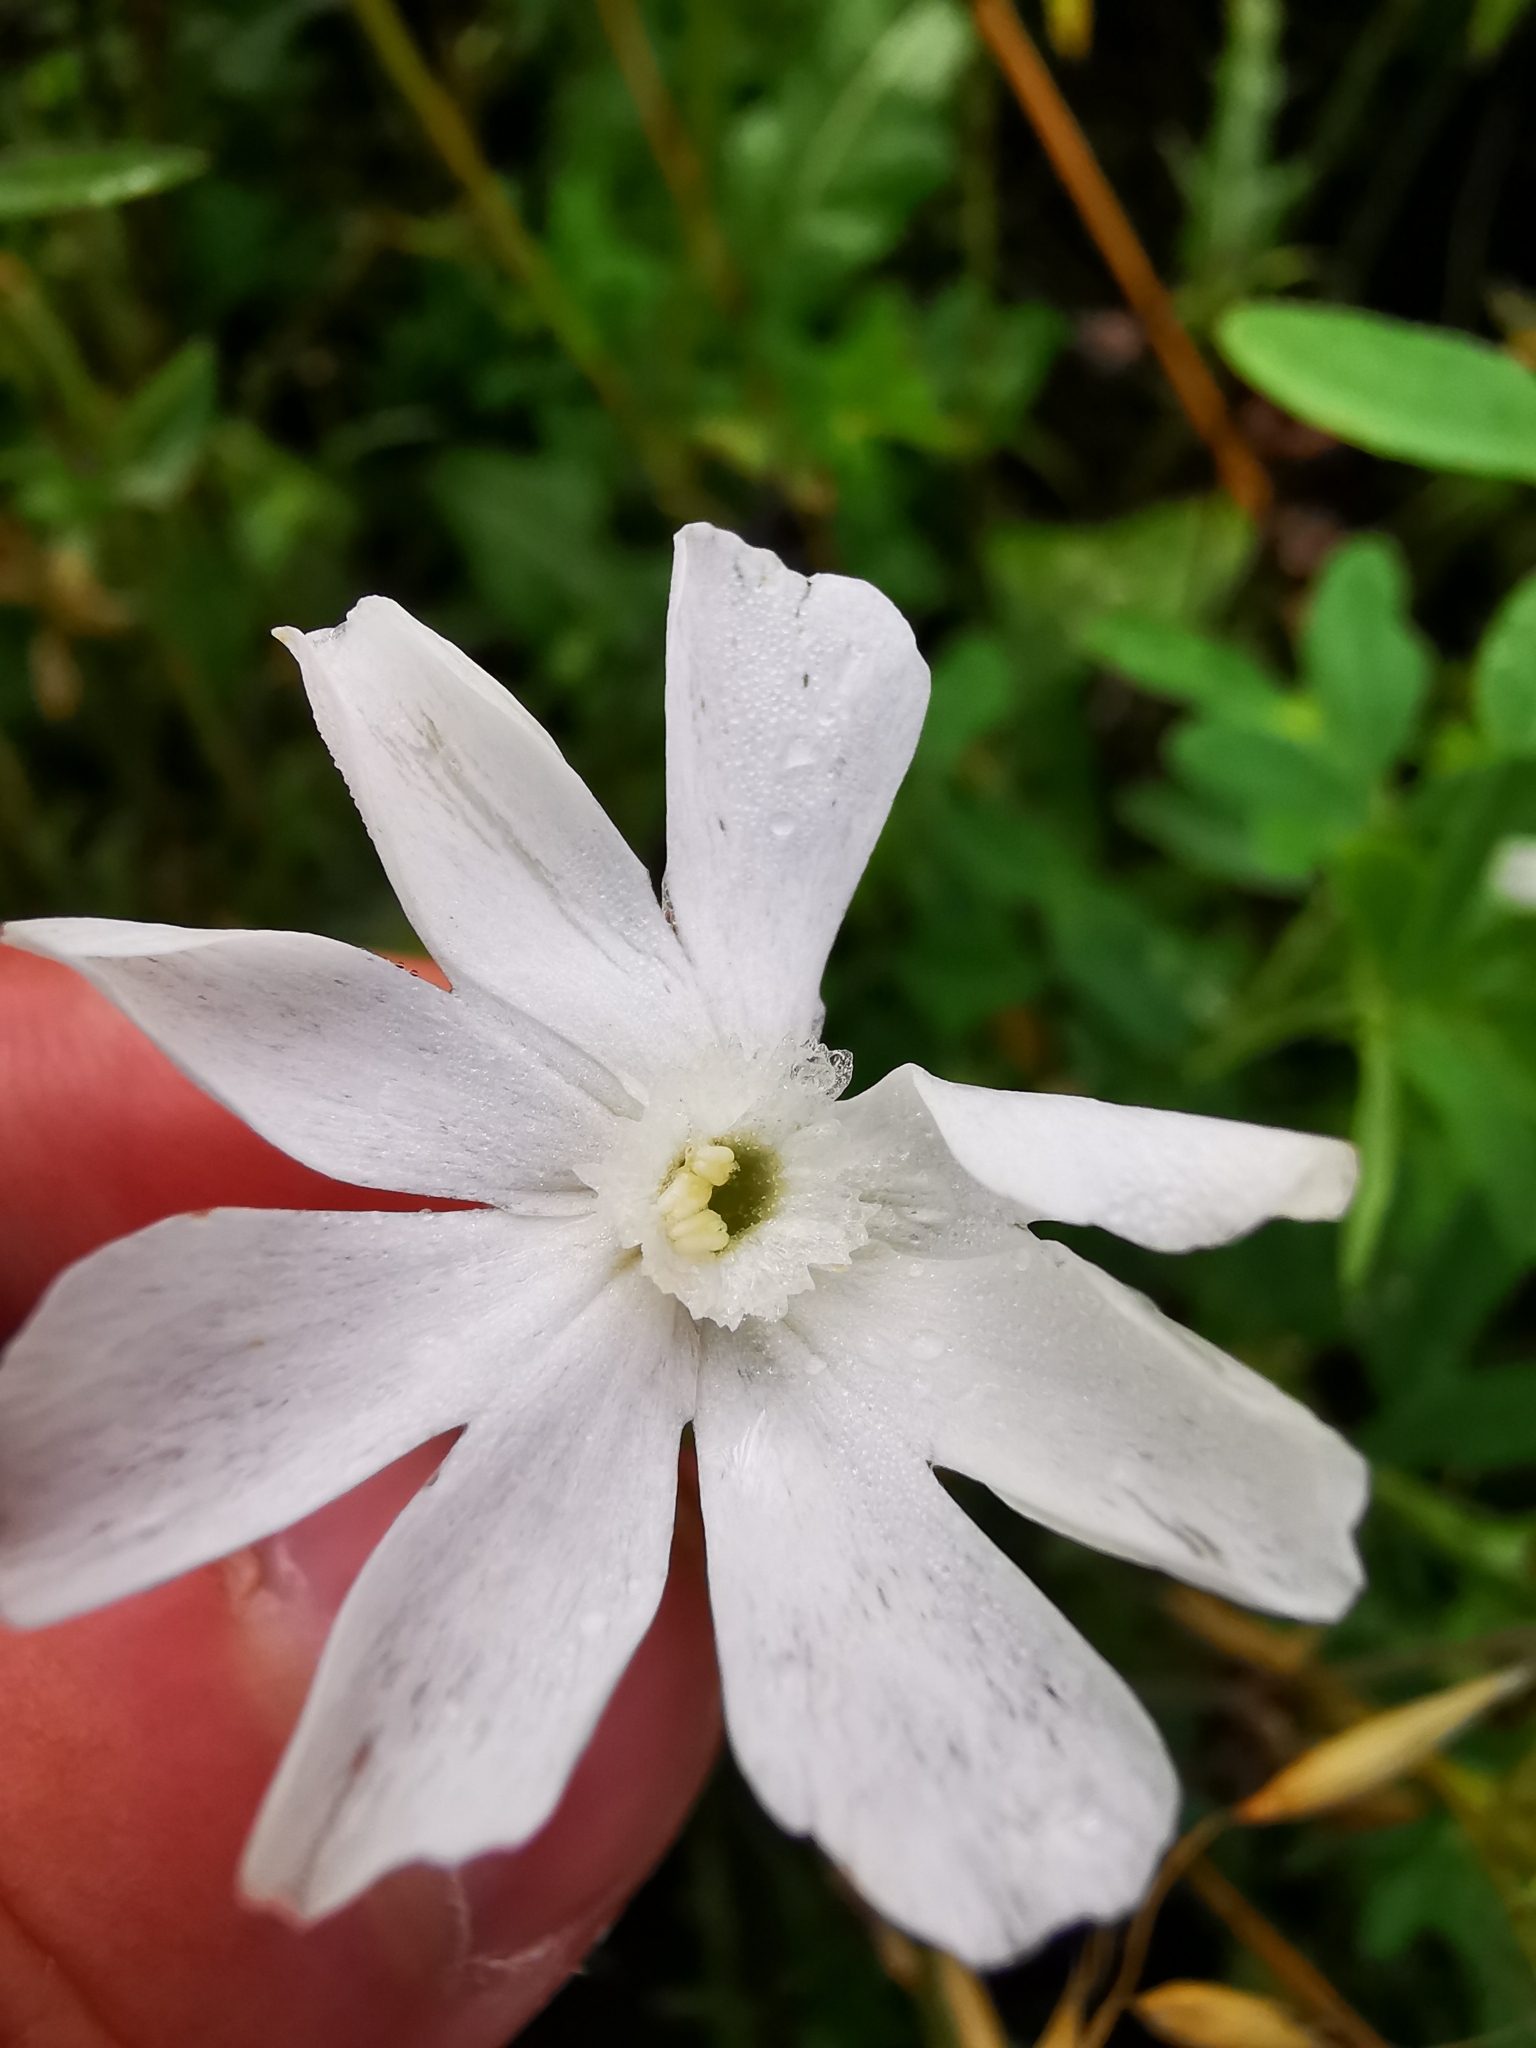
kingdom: Plantae
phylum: Tracheophyta
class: Magnoliopsida
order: Caryophyllales
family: Caryophyllaceae
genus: Silene
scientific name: Silene latifolia
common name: White campion
